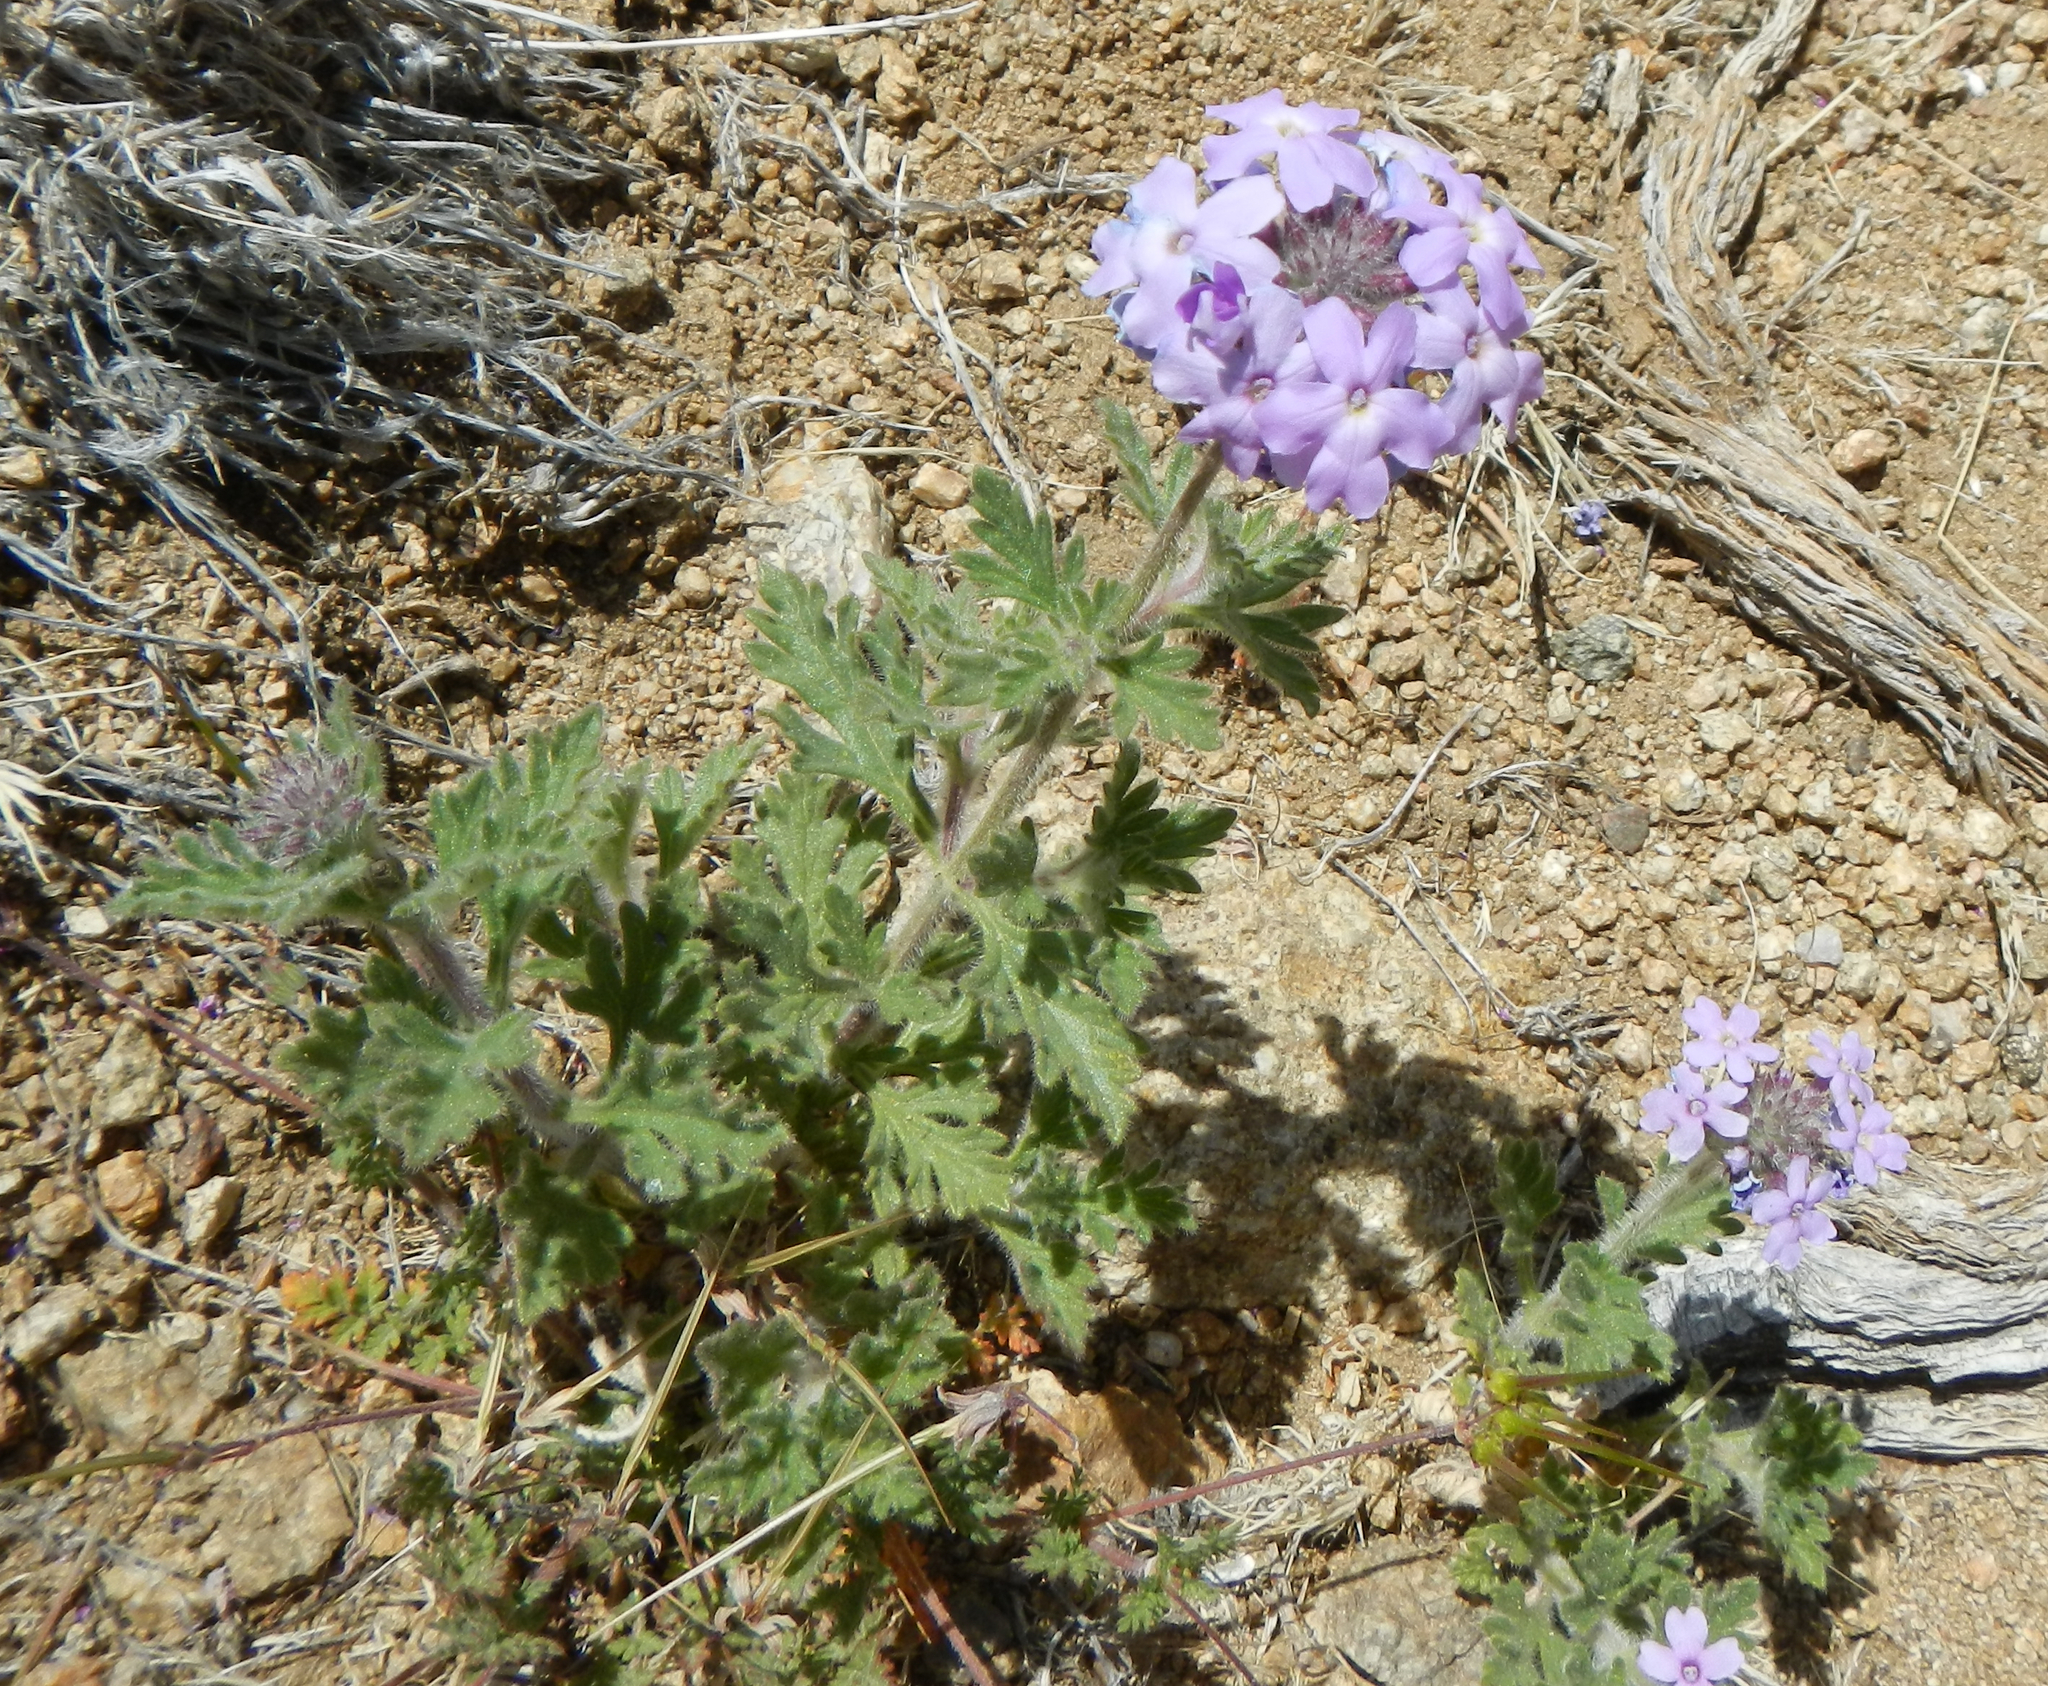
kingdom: Plantae
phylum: Tracheophyta
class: Magnoliopsida
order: Lamiales
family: Verbenaceae
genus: Verbena
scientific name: Verbena gooddingii
